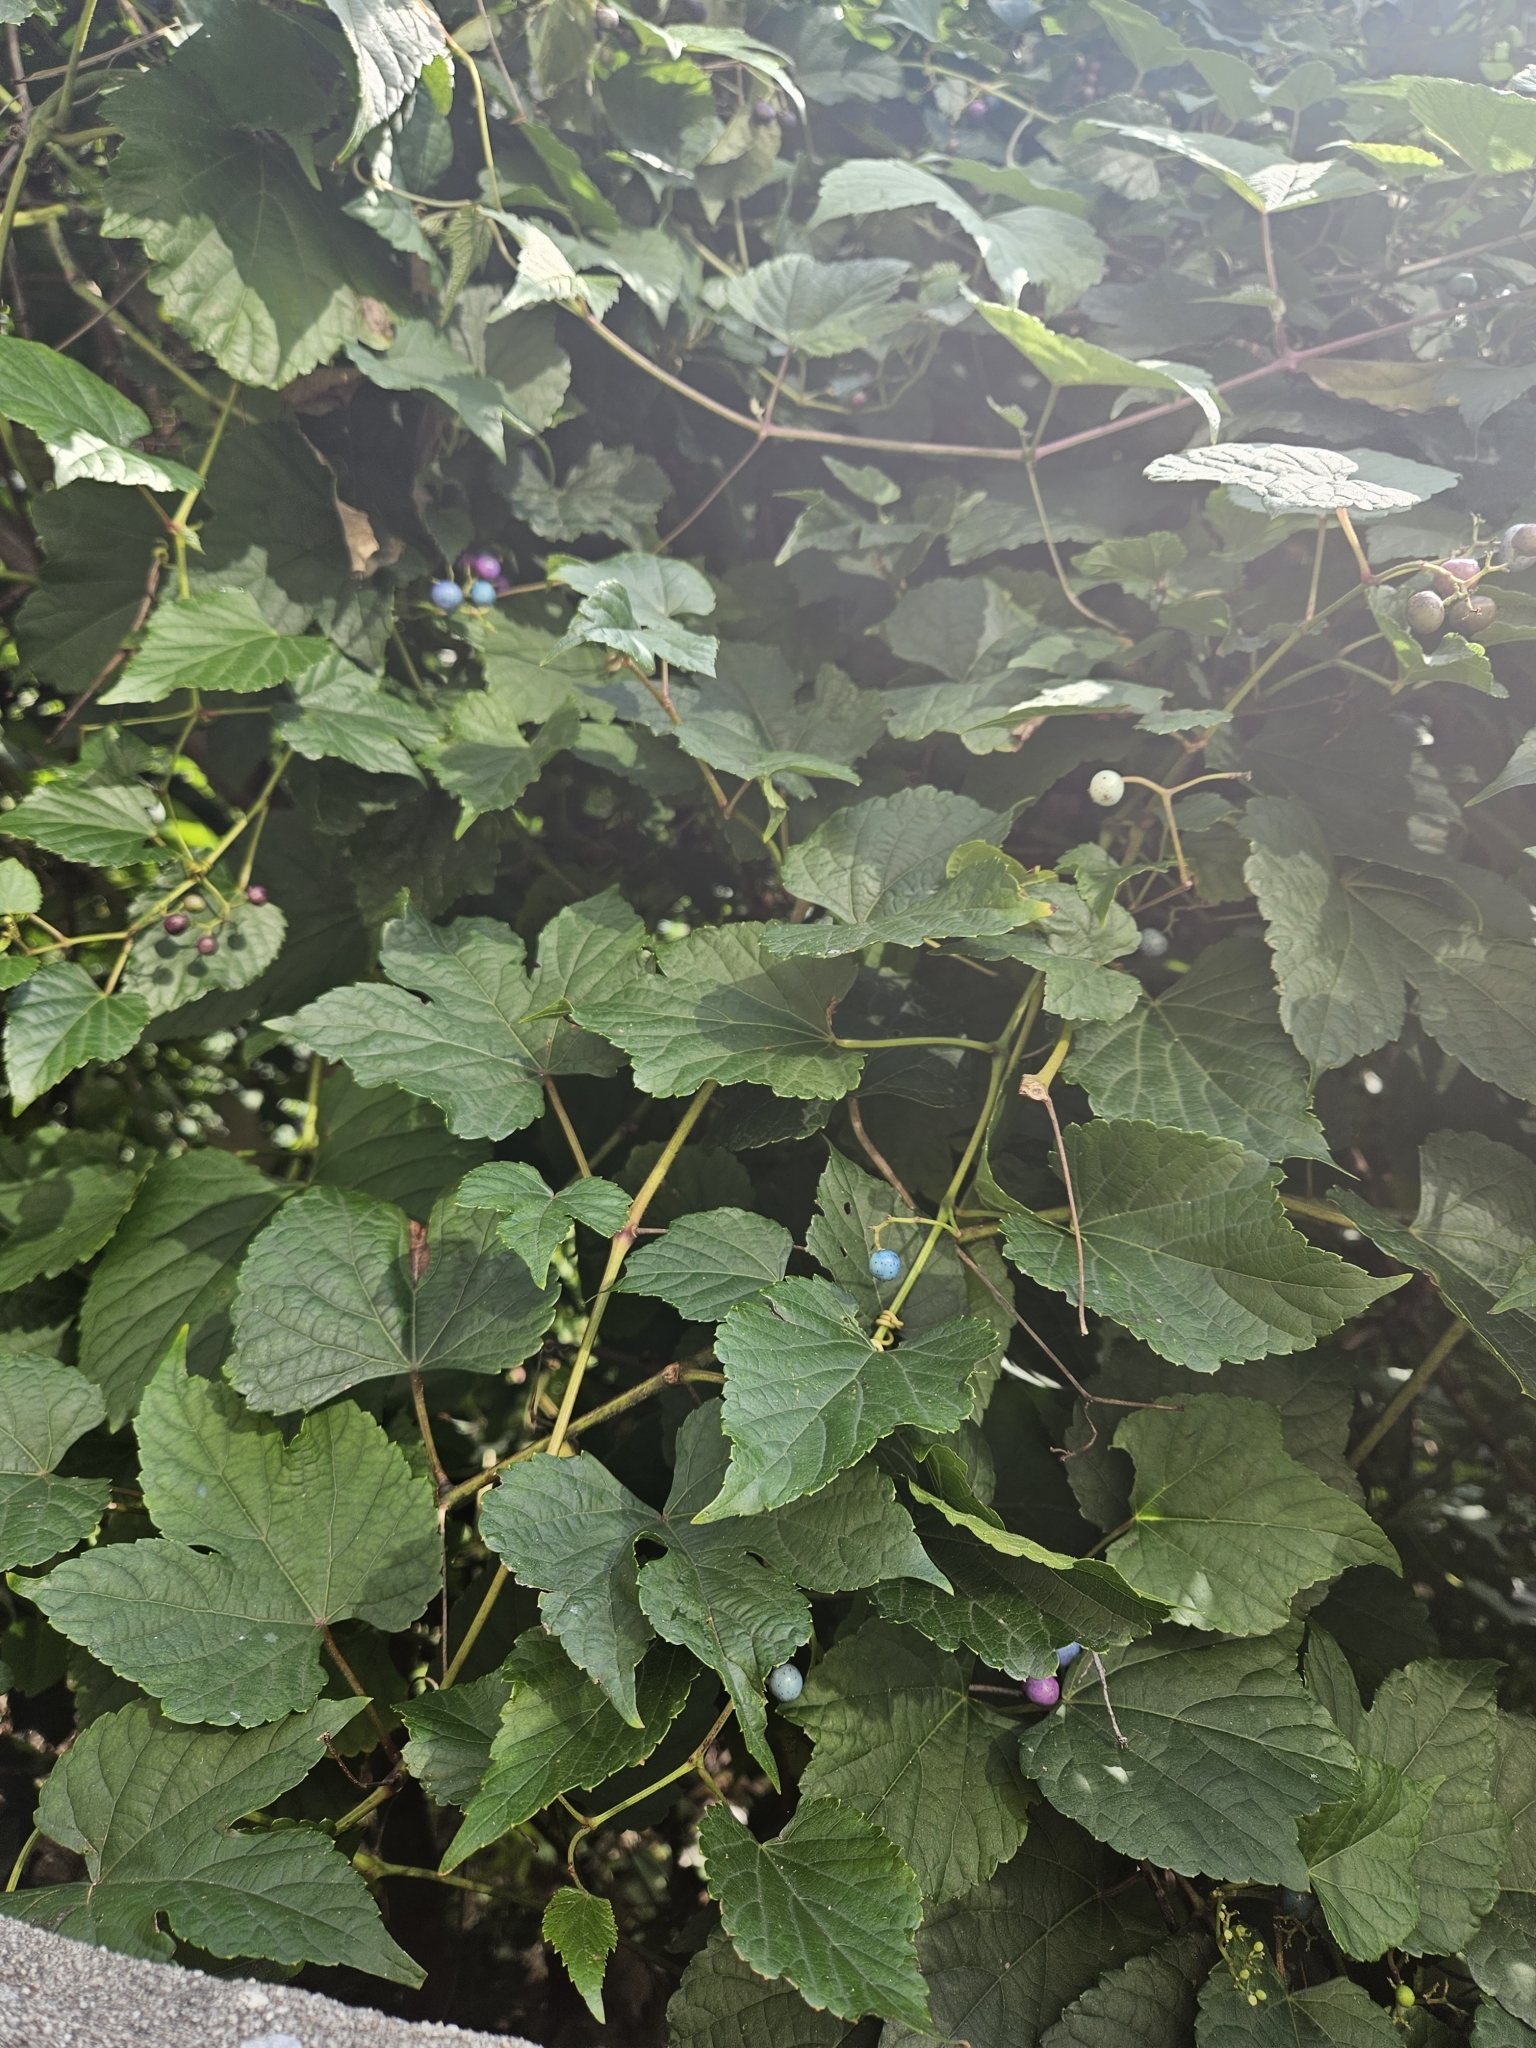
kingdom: Plantae
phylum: Tracheophyta
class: Magnoliopsida
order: Vitales
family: Vitaceae
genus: Ampelopsis
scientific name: Ampelopsis glandulosa
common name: Amur peppervine
